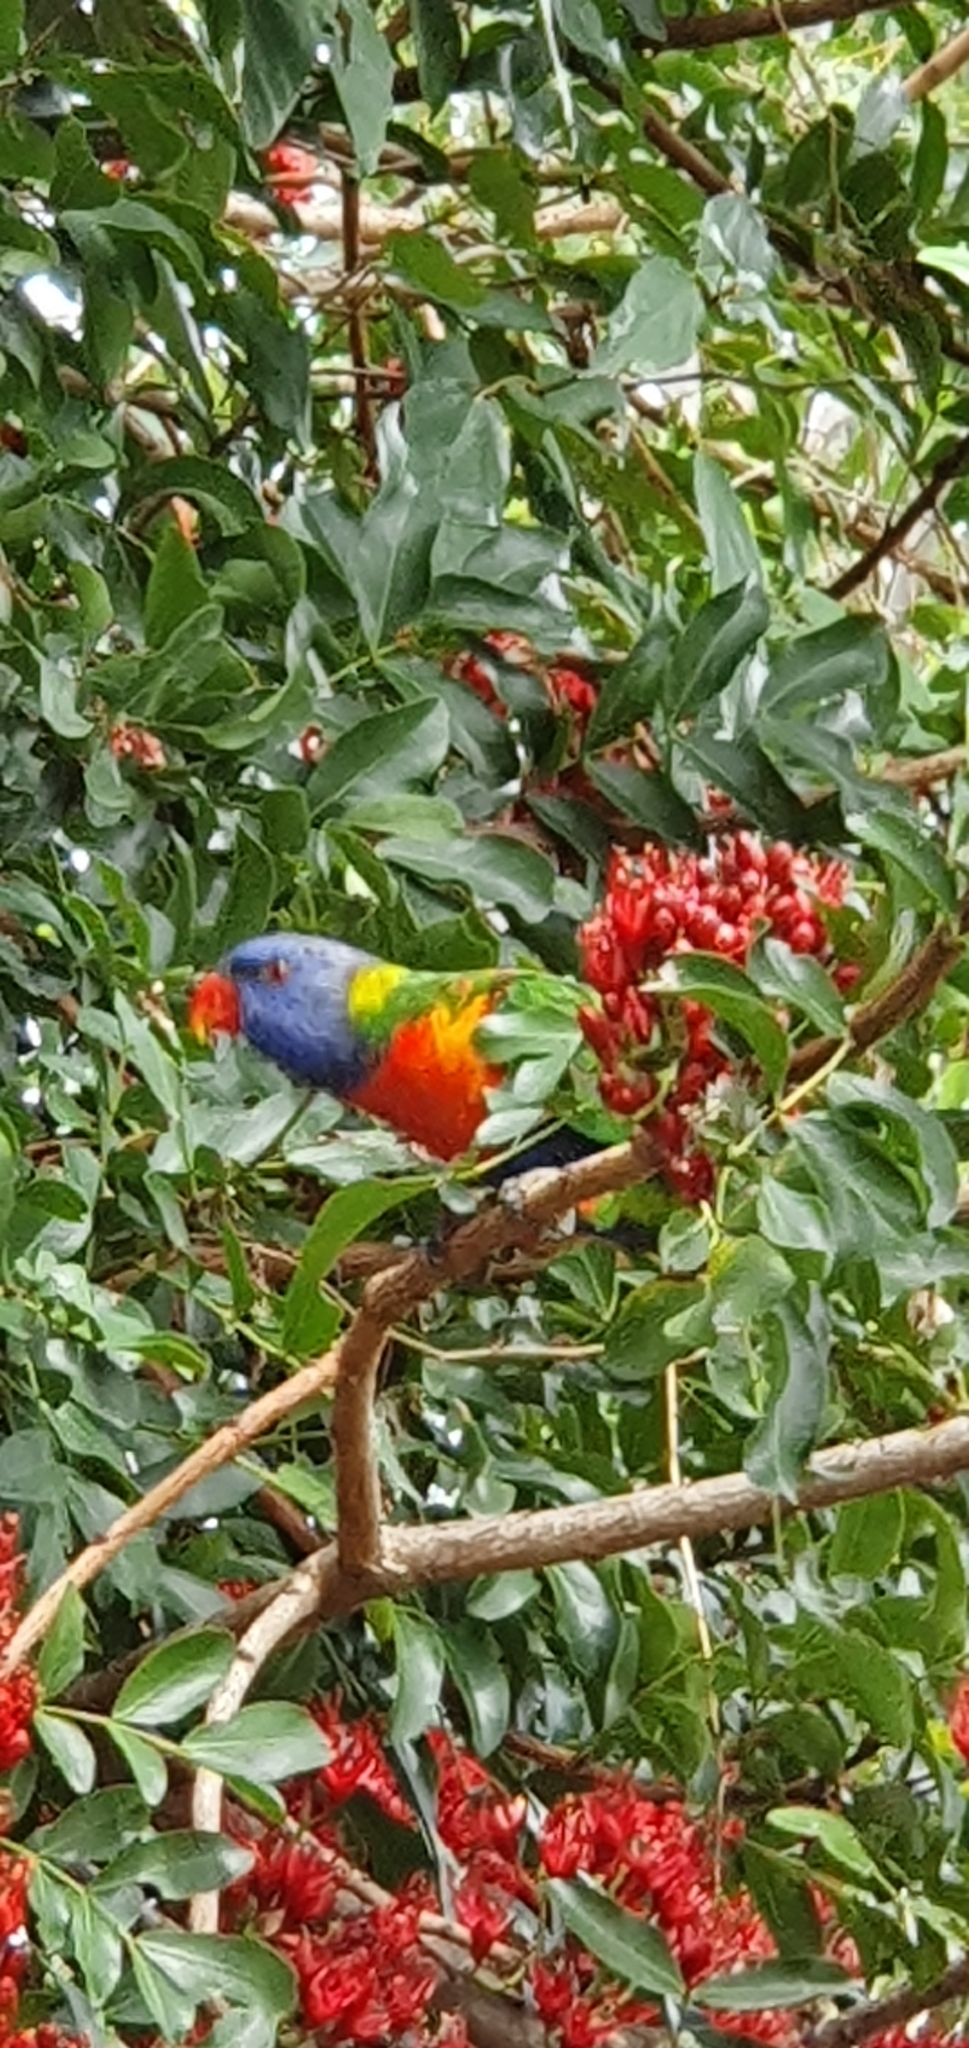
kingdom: Animalia
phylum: Chordata
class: Aves
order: Psittaciformes
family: Psittacidae
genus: Trichoglossus
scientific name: Trichoglossus haematodus
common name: Coconut lorikeet
